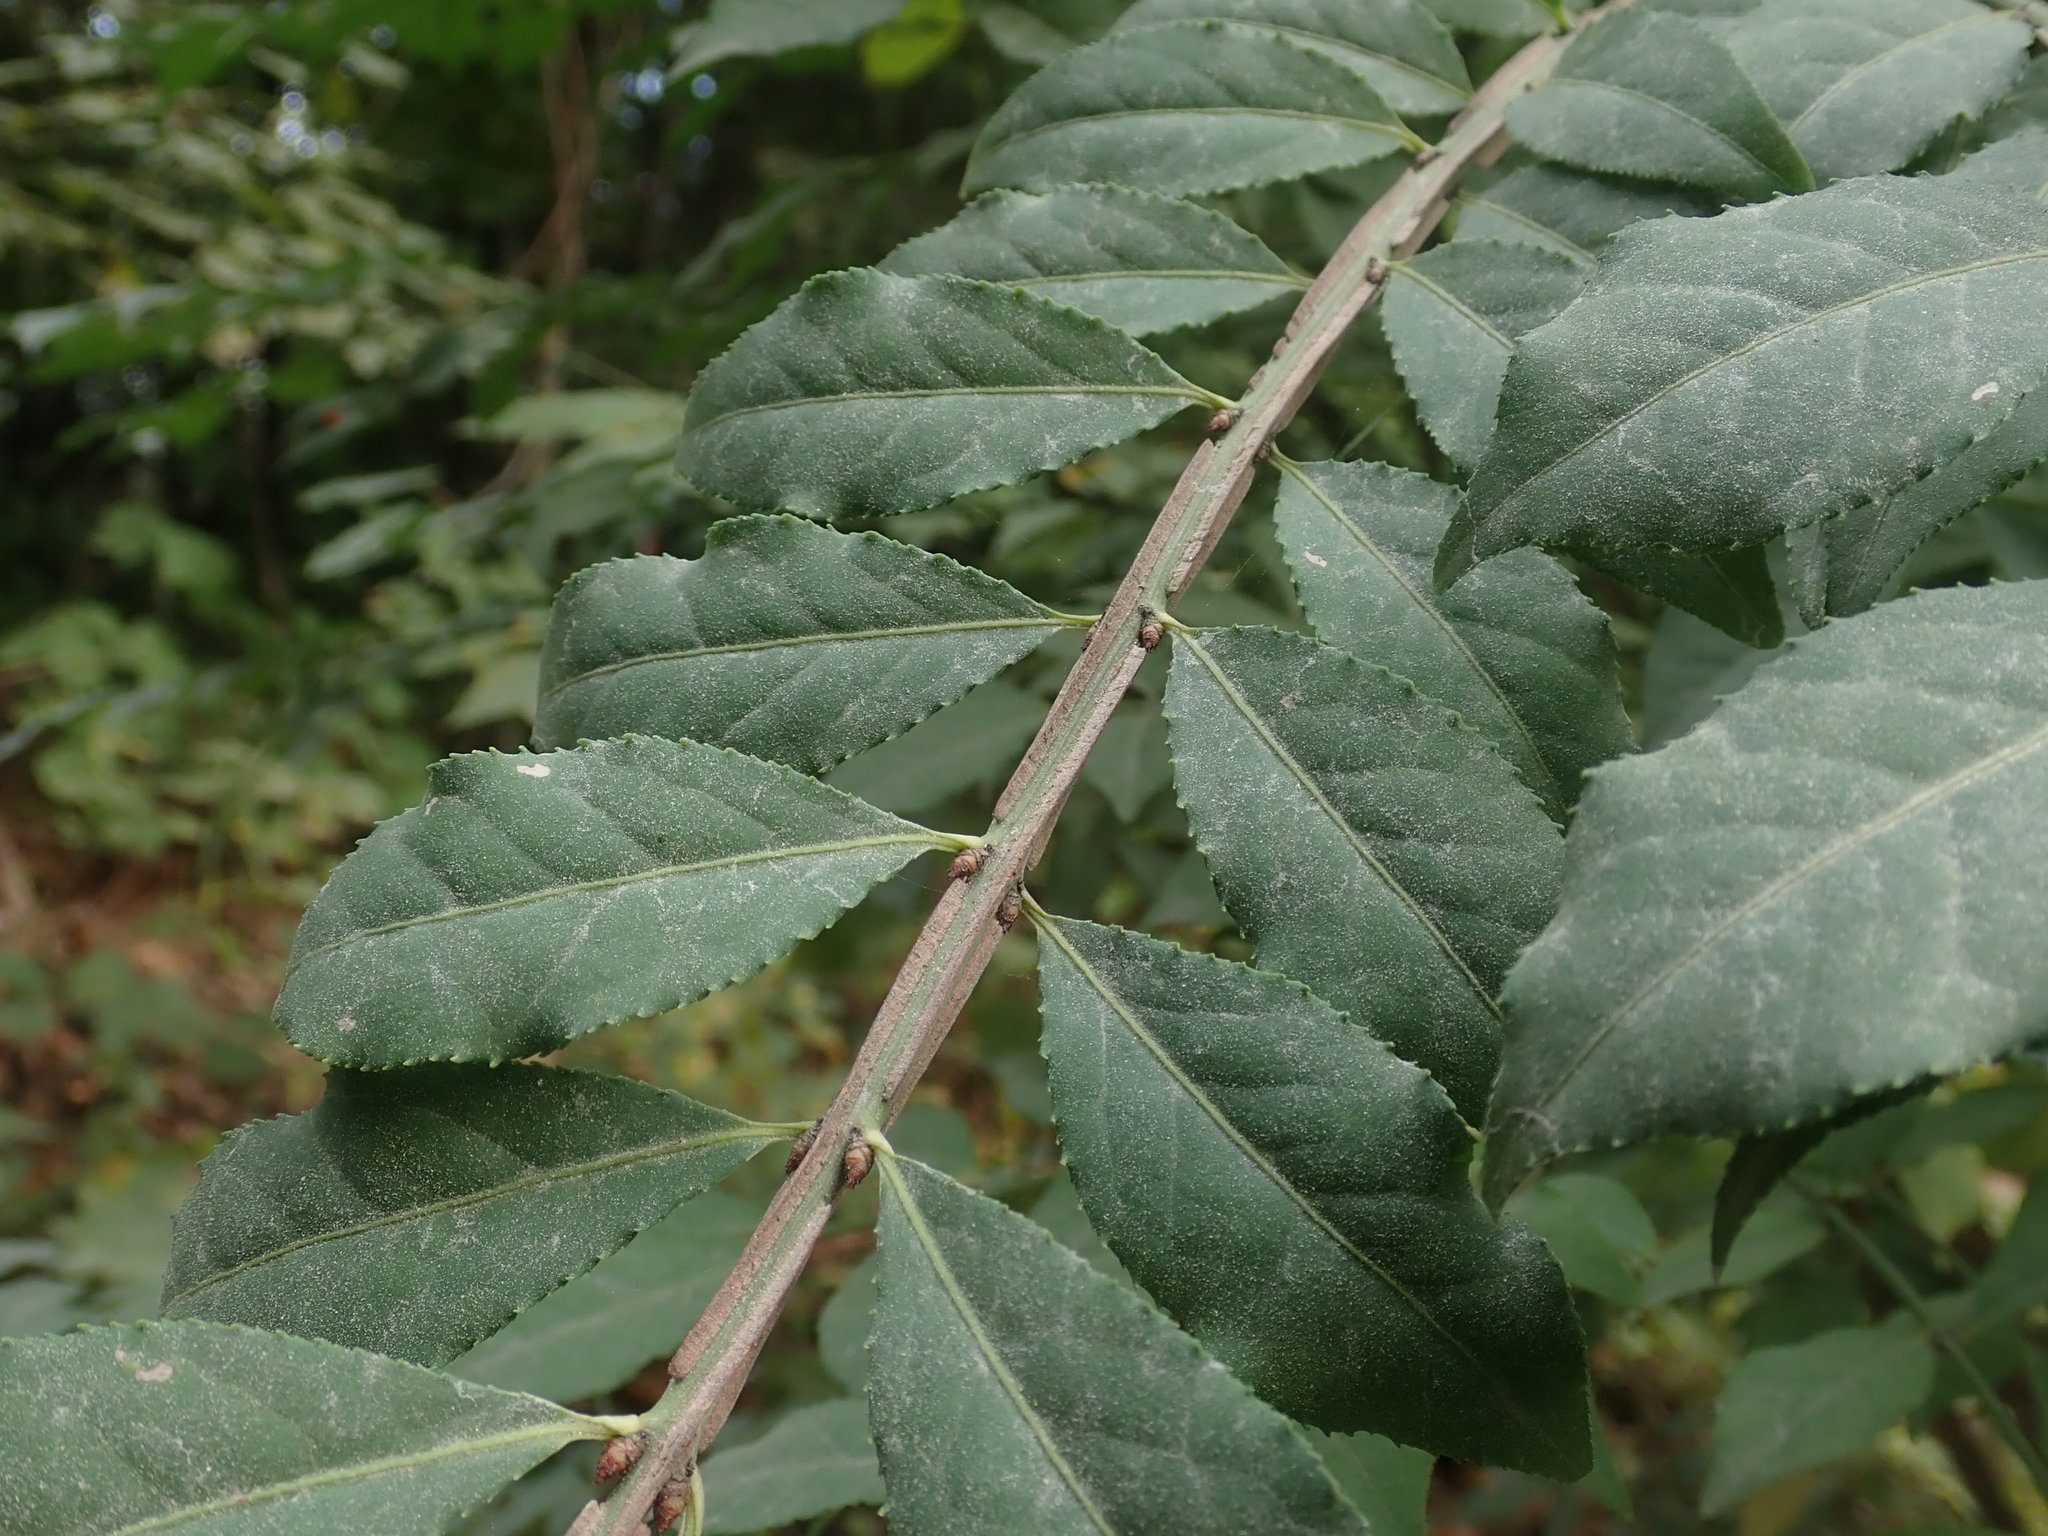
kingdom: Plantae
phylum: Tracheophyta
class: Magnoliopsida
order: Celastrales
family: Celastraceae
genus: Euonymus
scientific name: Euonymus alatus
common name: Winged euonymus
